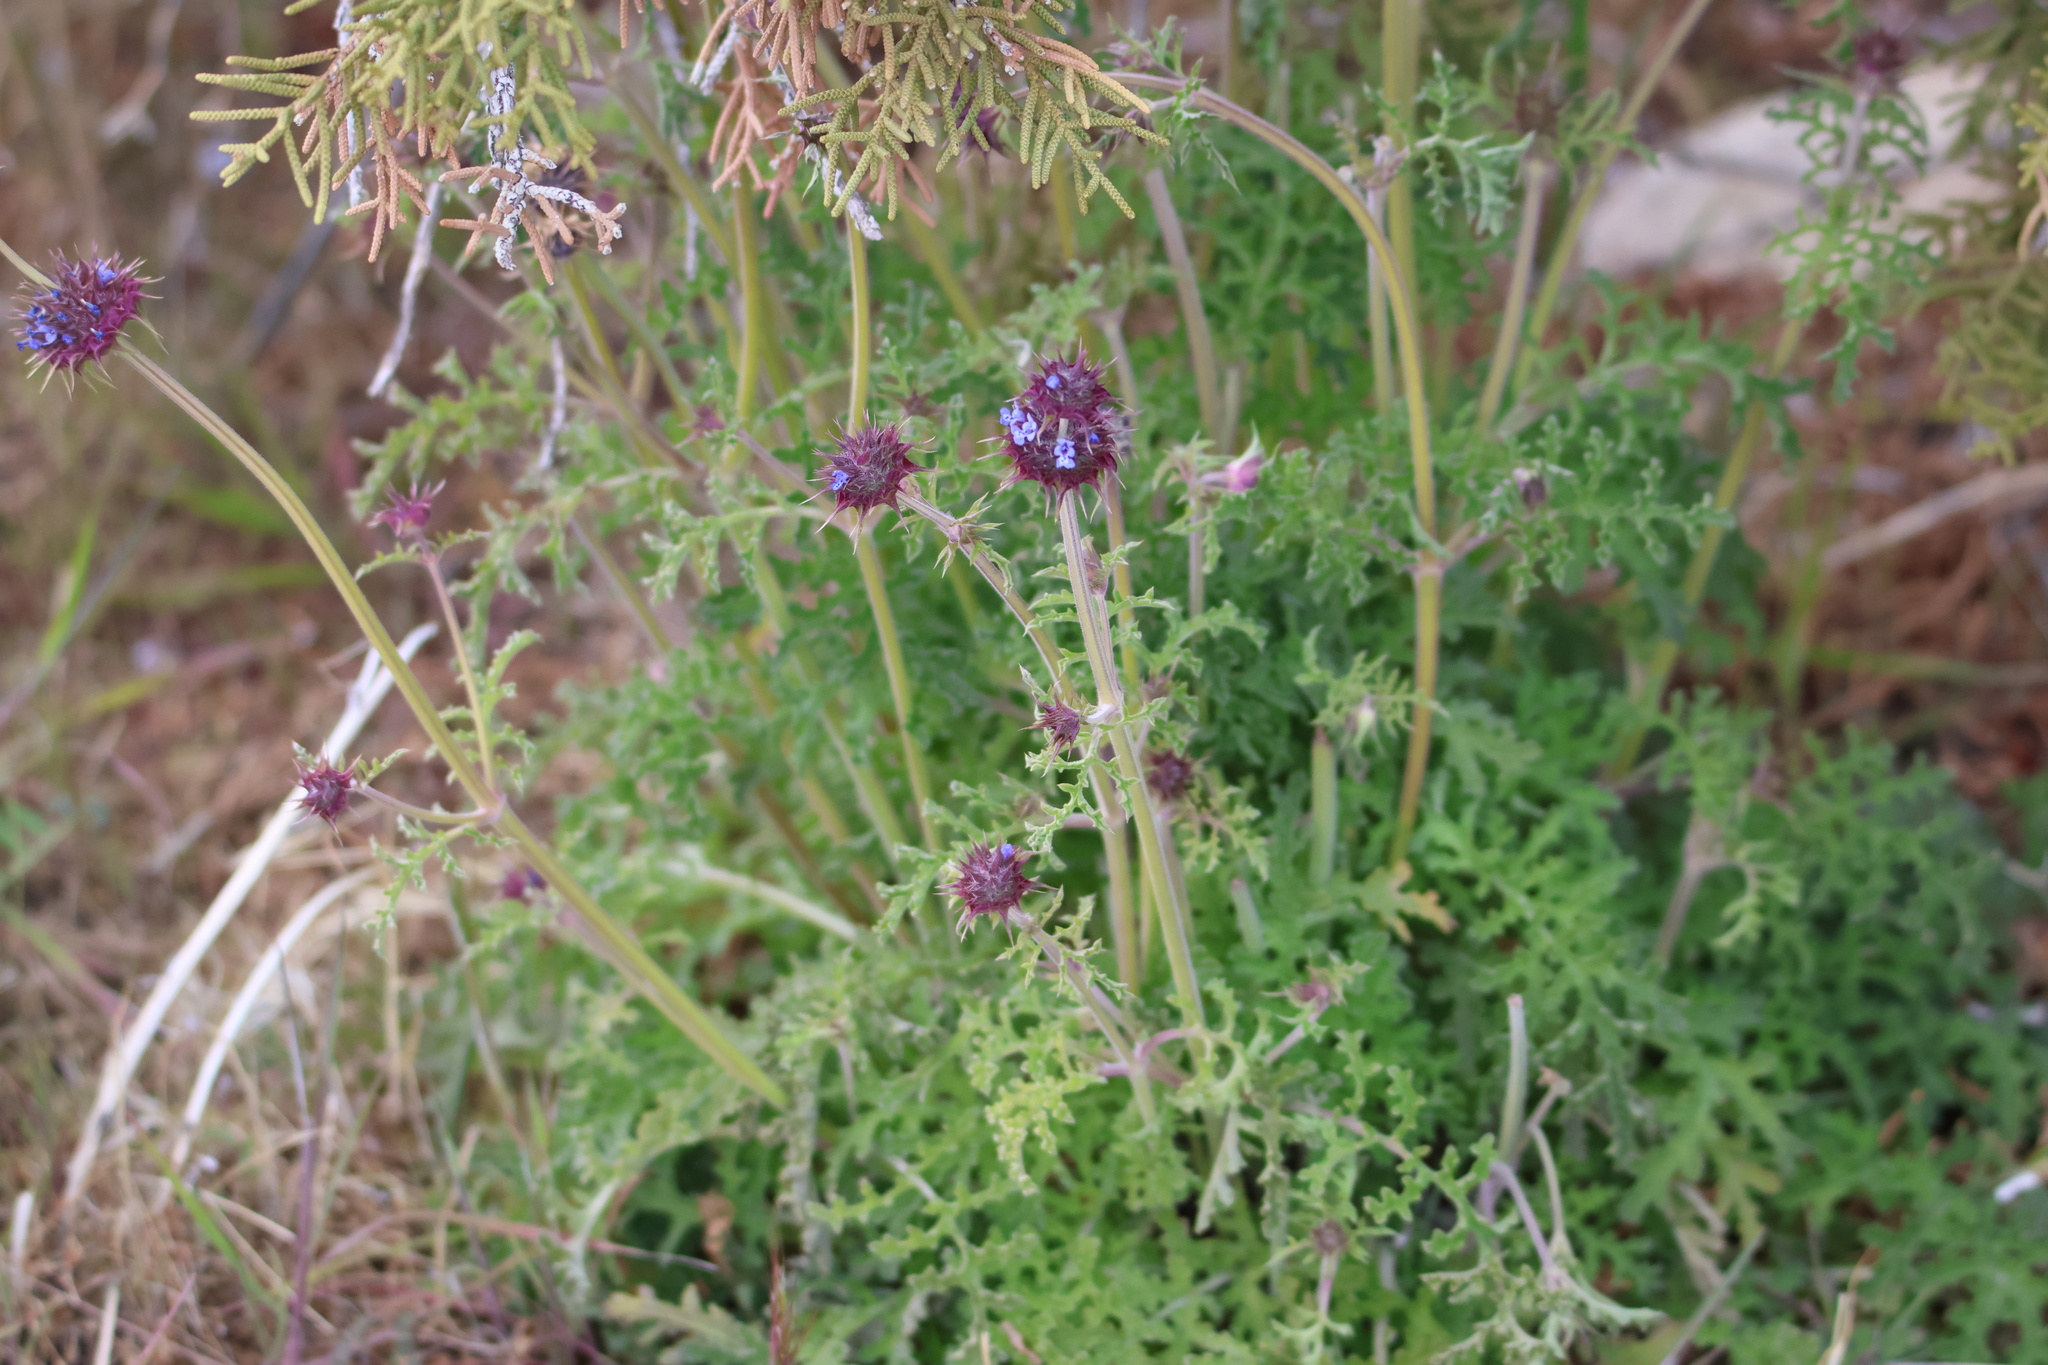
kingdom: Plantae
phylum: Tracheophyta
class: Magnoliopsida
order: Lamiales
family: Lamiaceae
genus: Salvia
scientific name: Salvia columbariae
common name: Chia
